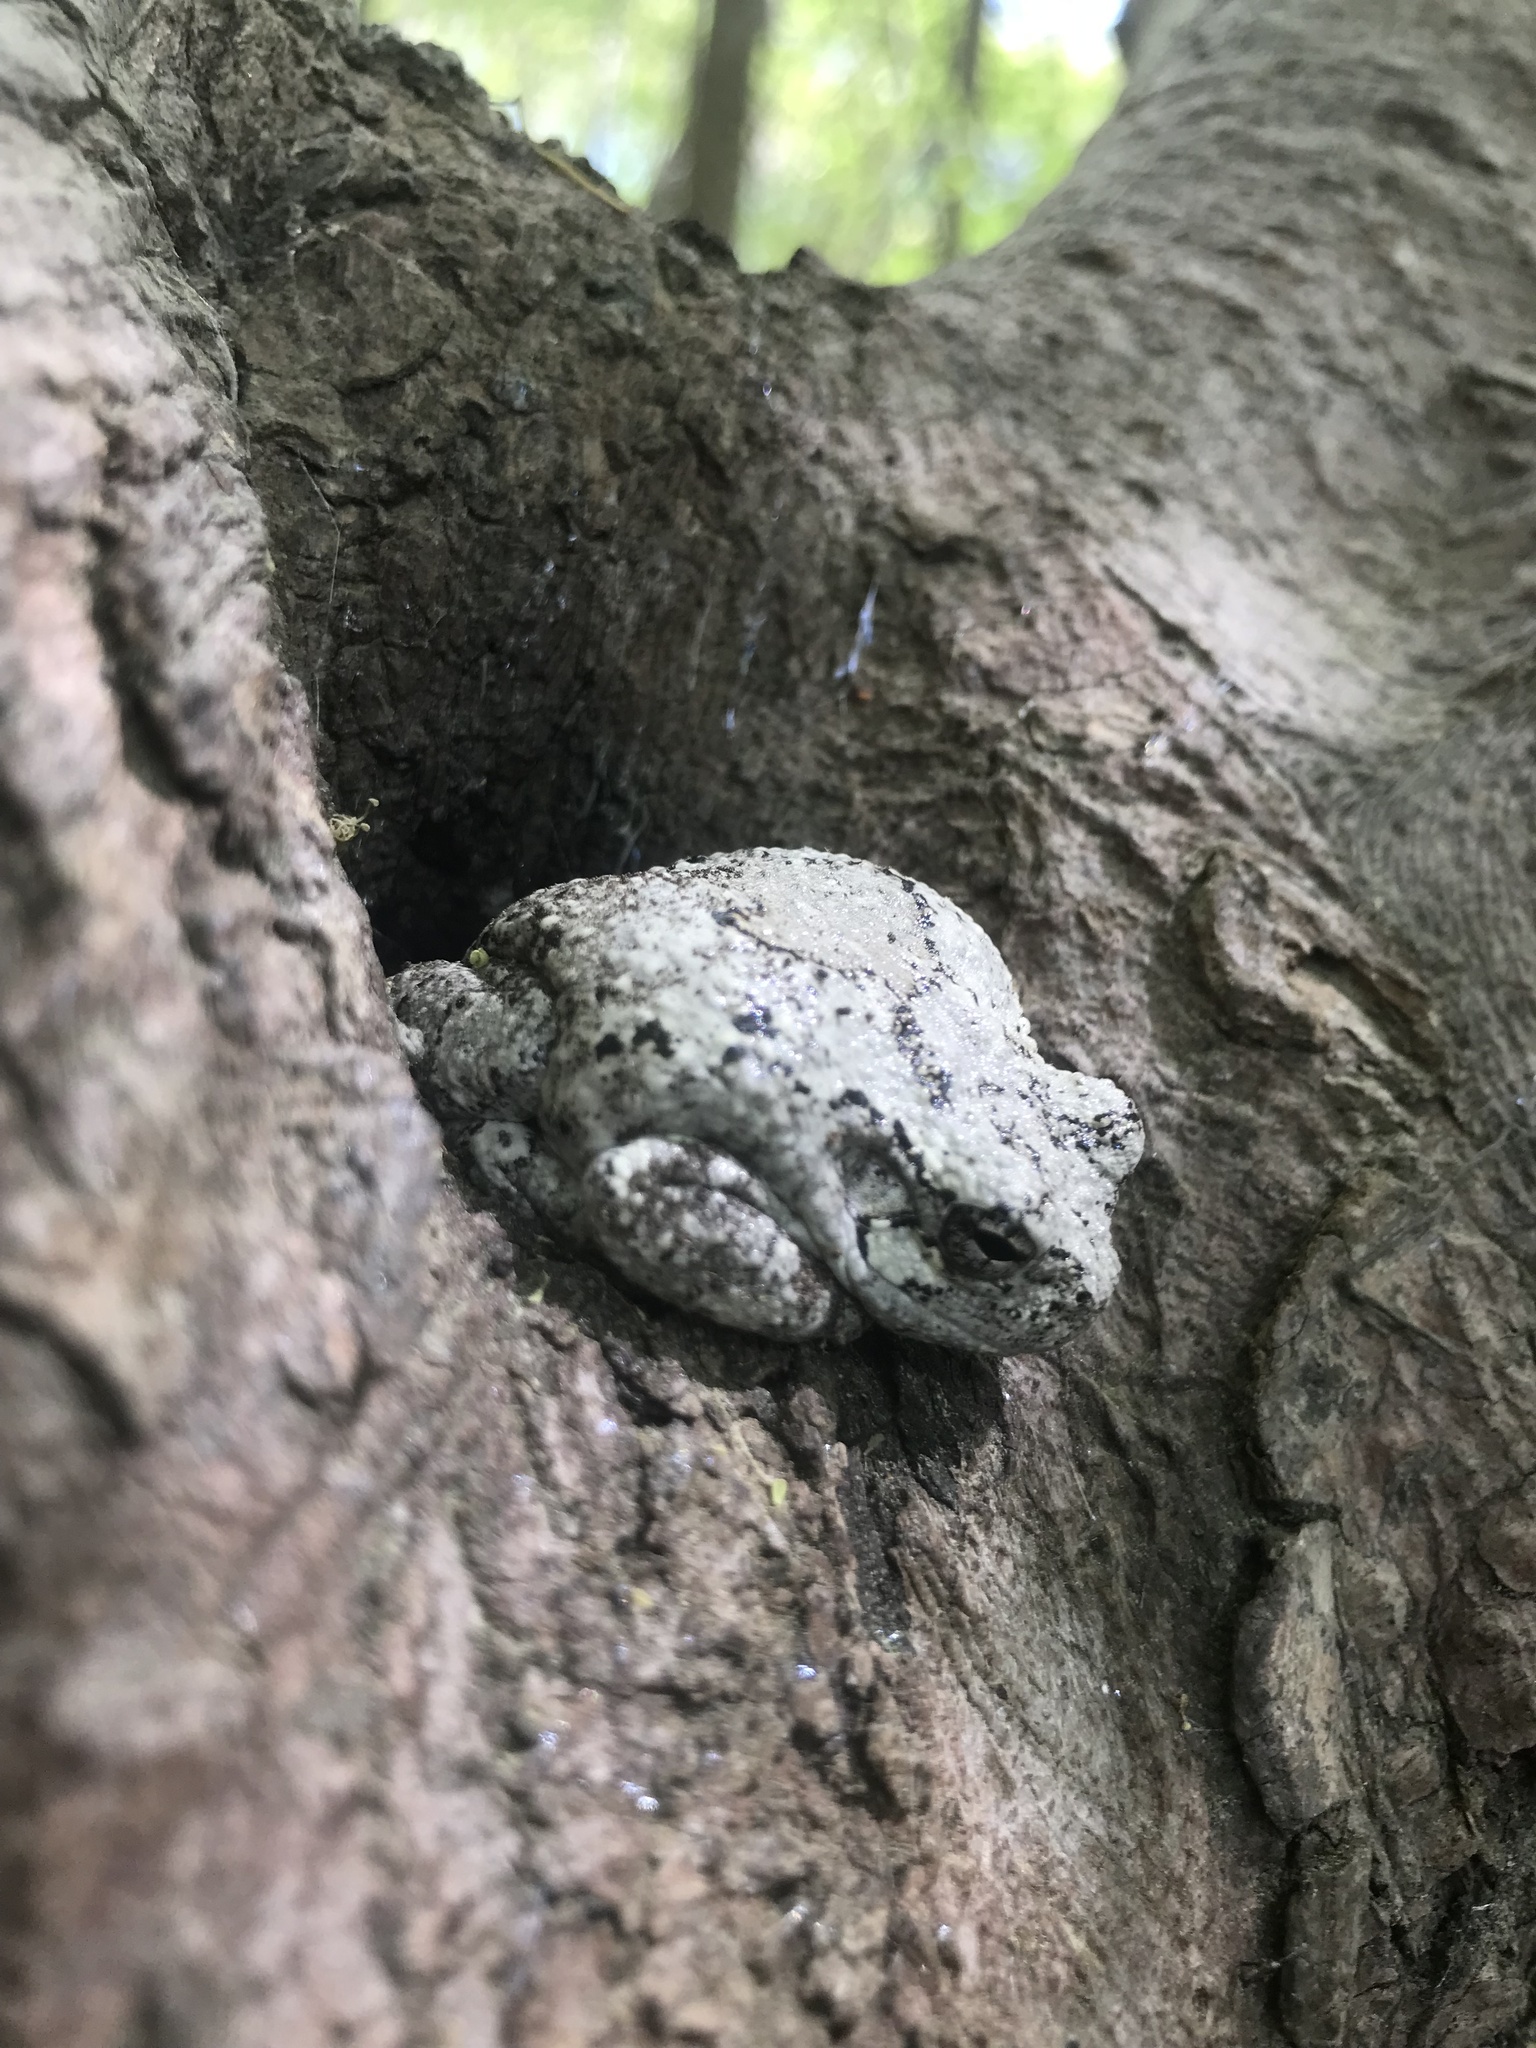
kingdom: Animalia
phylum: Chordata
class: Amphibia
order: Anura
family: Hylidae
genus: Dryophytes
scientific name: Dryophytes chrysoscelis
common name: Cope's gray treefrog
